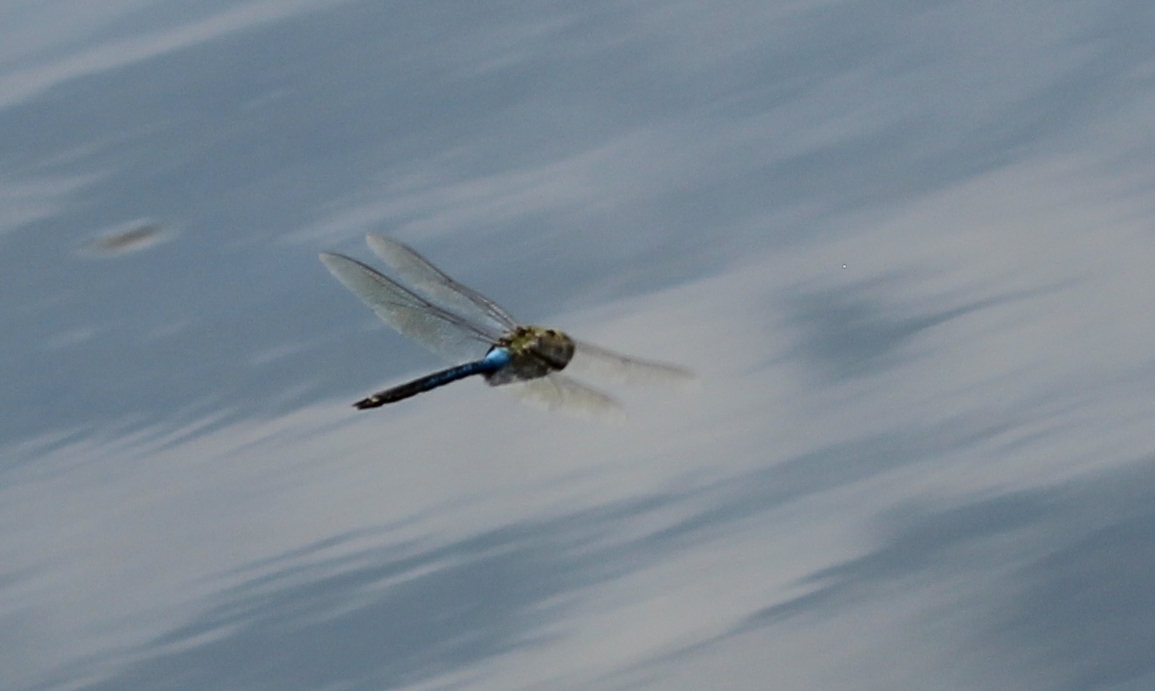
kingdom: Animalia
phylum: Arthropoda
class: Insecta
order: Odonata
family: Aeshnidae
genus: Anax
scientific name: Anax junius
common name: Common green darner
